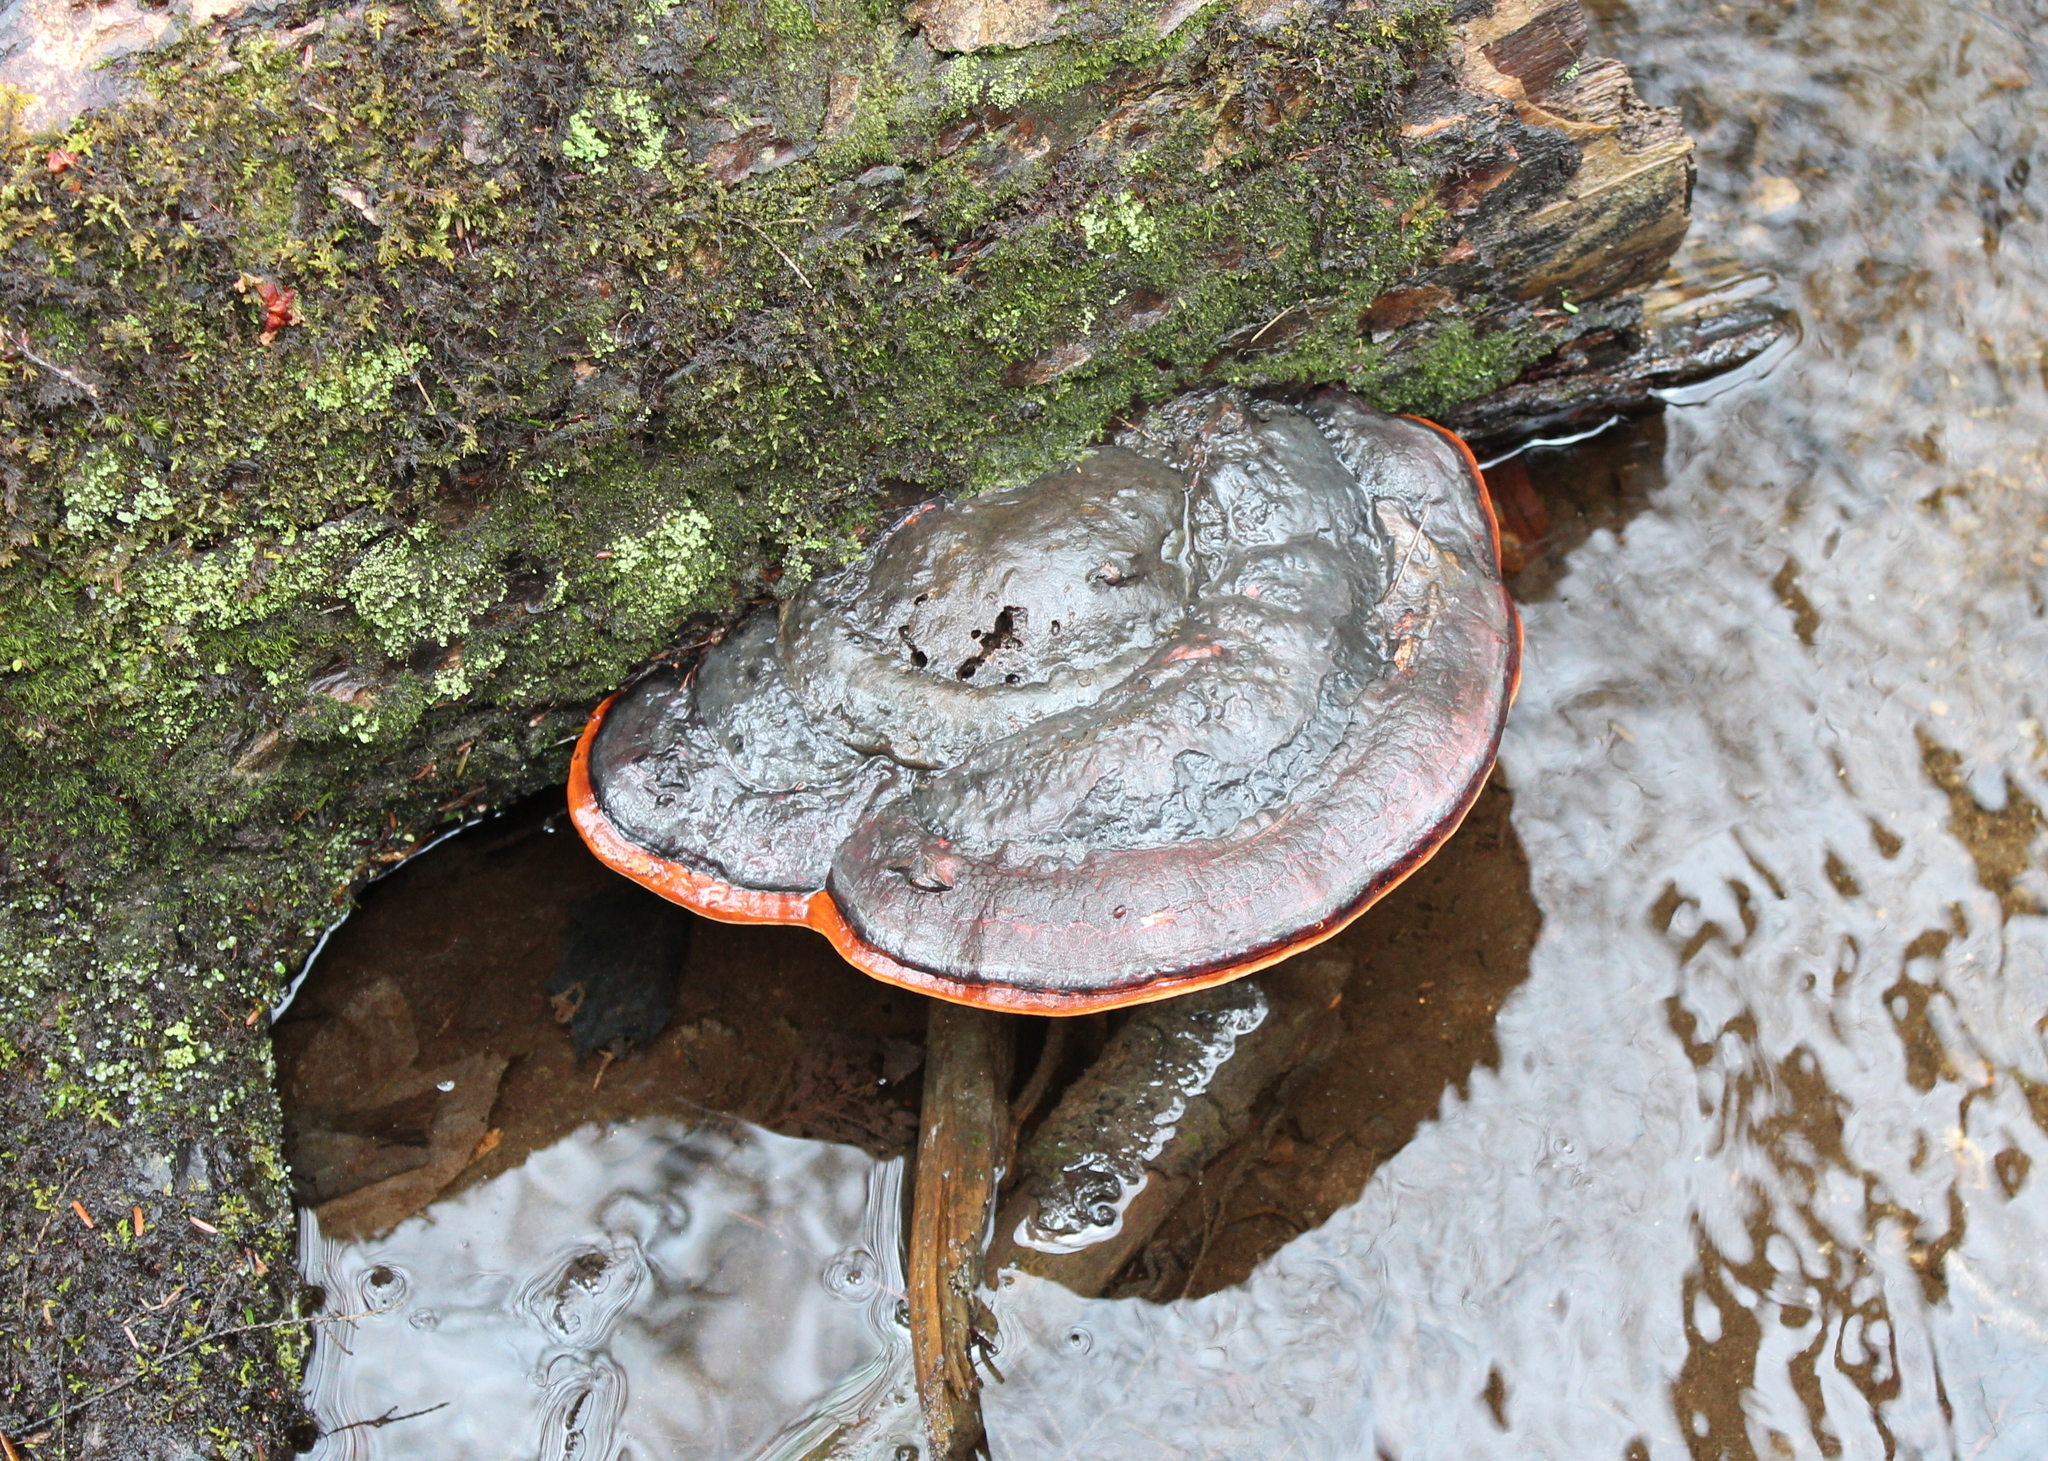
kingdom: Fungi
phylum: Basidiomycota
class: Agaricomycetes
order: Polyporales
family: Fomitopsidaceae
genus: Fomitopsis
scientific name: Fomitopsis mounceae
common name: Northern red belt
